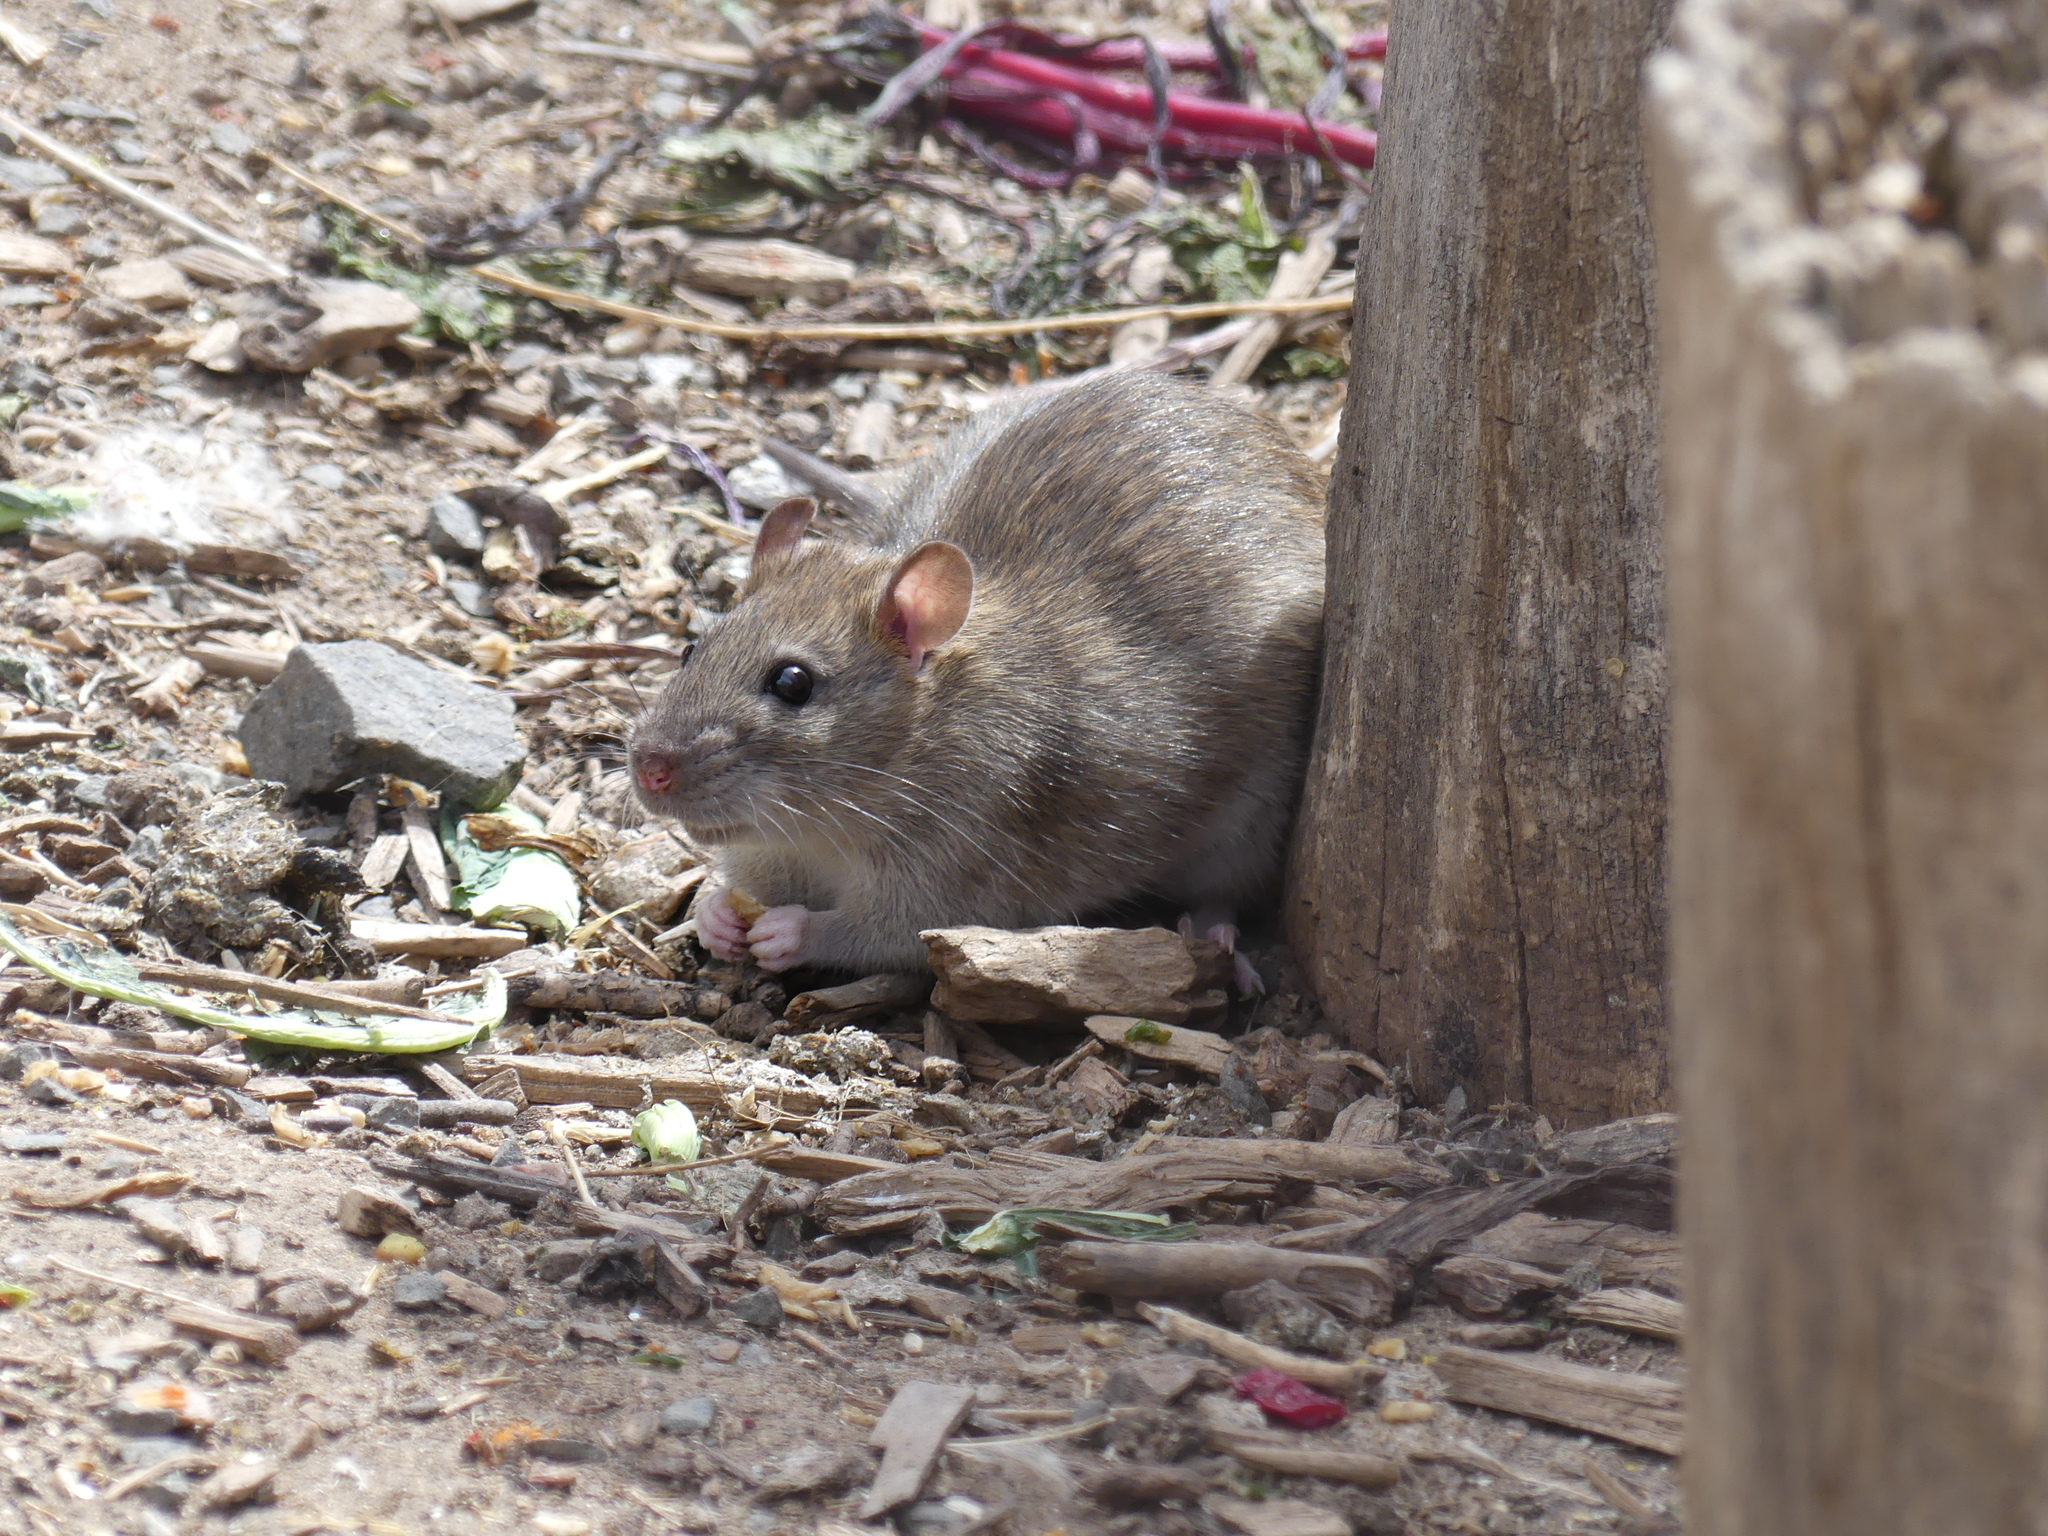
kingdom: Animalia
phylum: Chordata
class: Mammalia
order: Rodentia
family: Muridae
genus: Rattus
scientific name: Rattus norvegicus
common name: Brown rat
